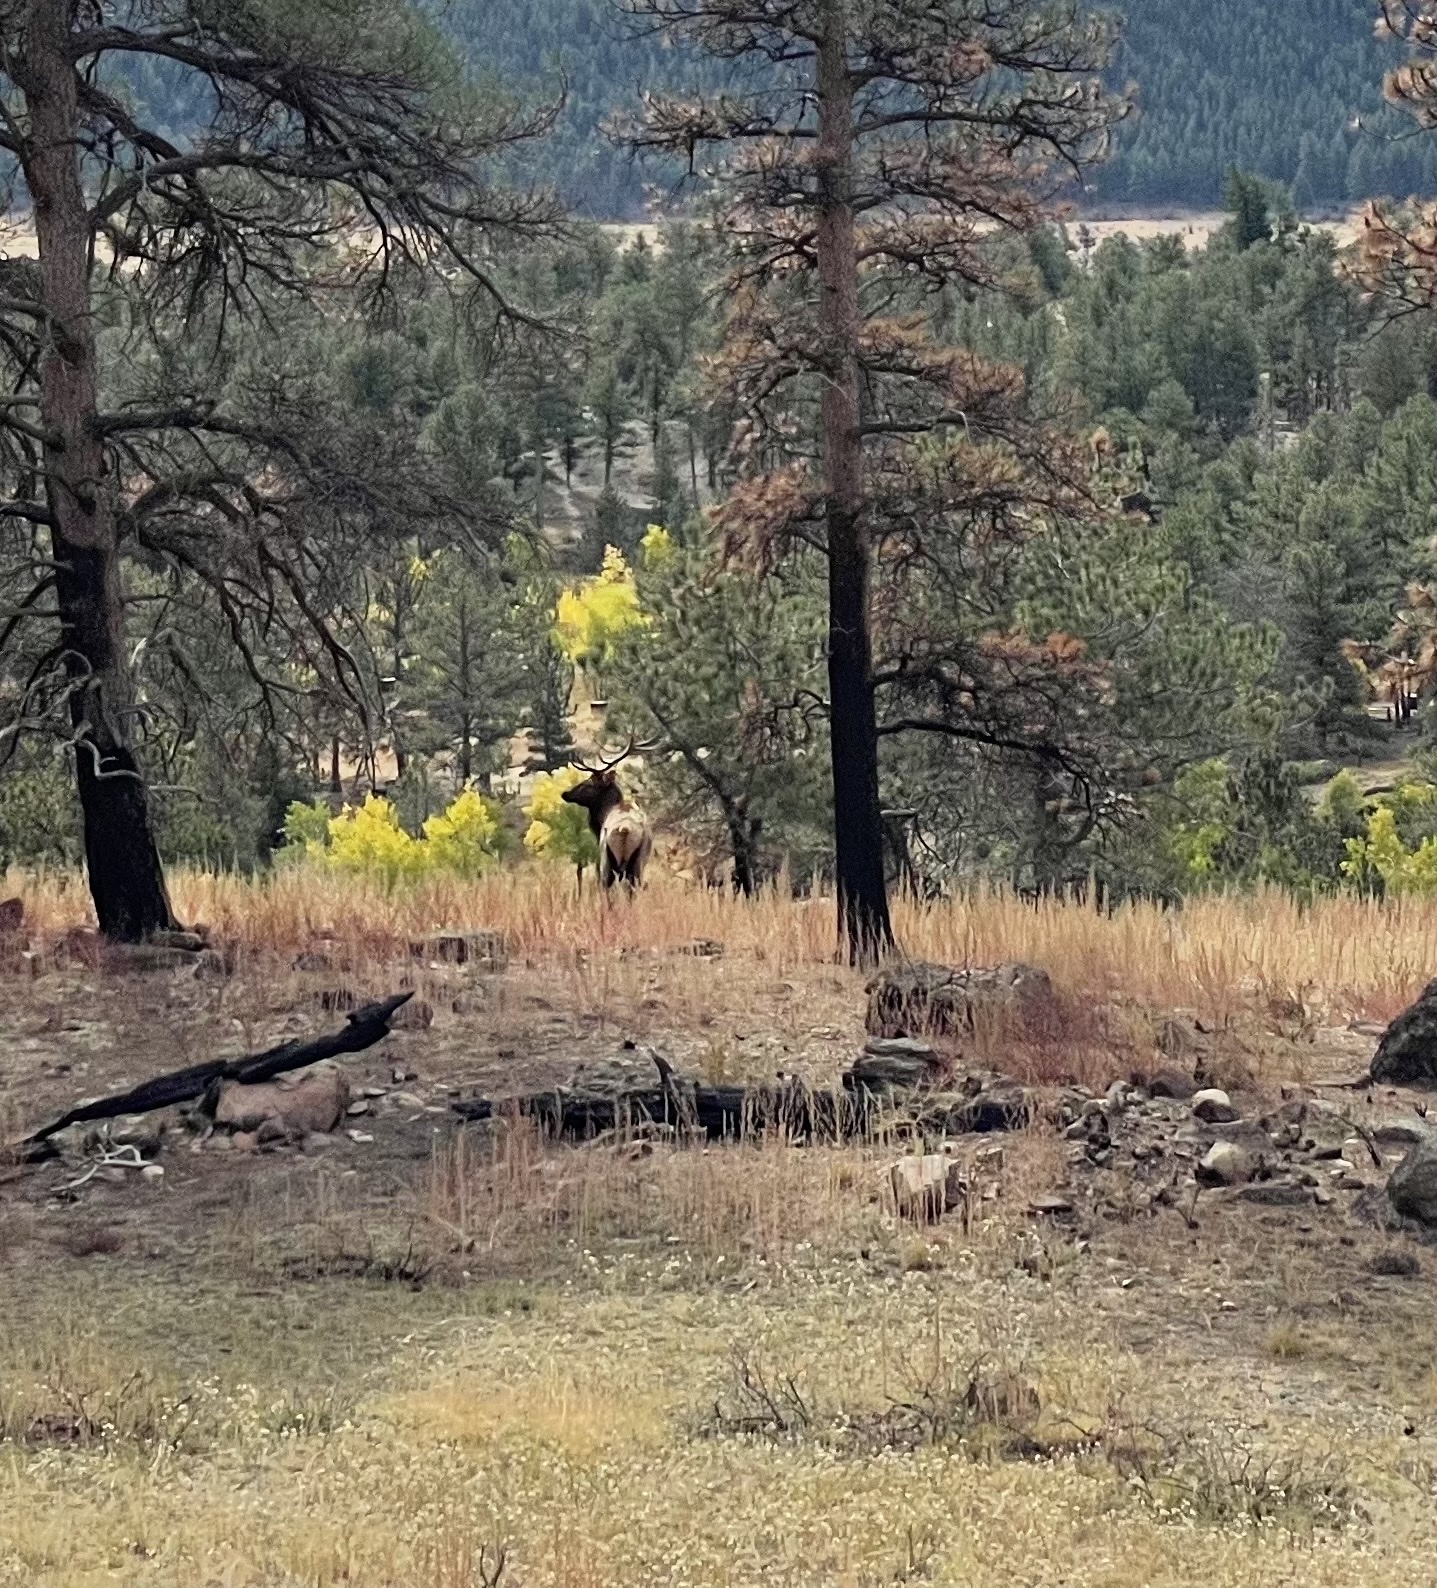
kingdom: Animalia
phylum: Chordata
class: Mammalia
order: Artiodactyla
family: Cervidae
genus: Cervus
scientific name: Cervus elaphus
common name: Red deer
